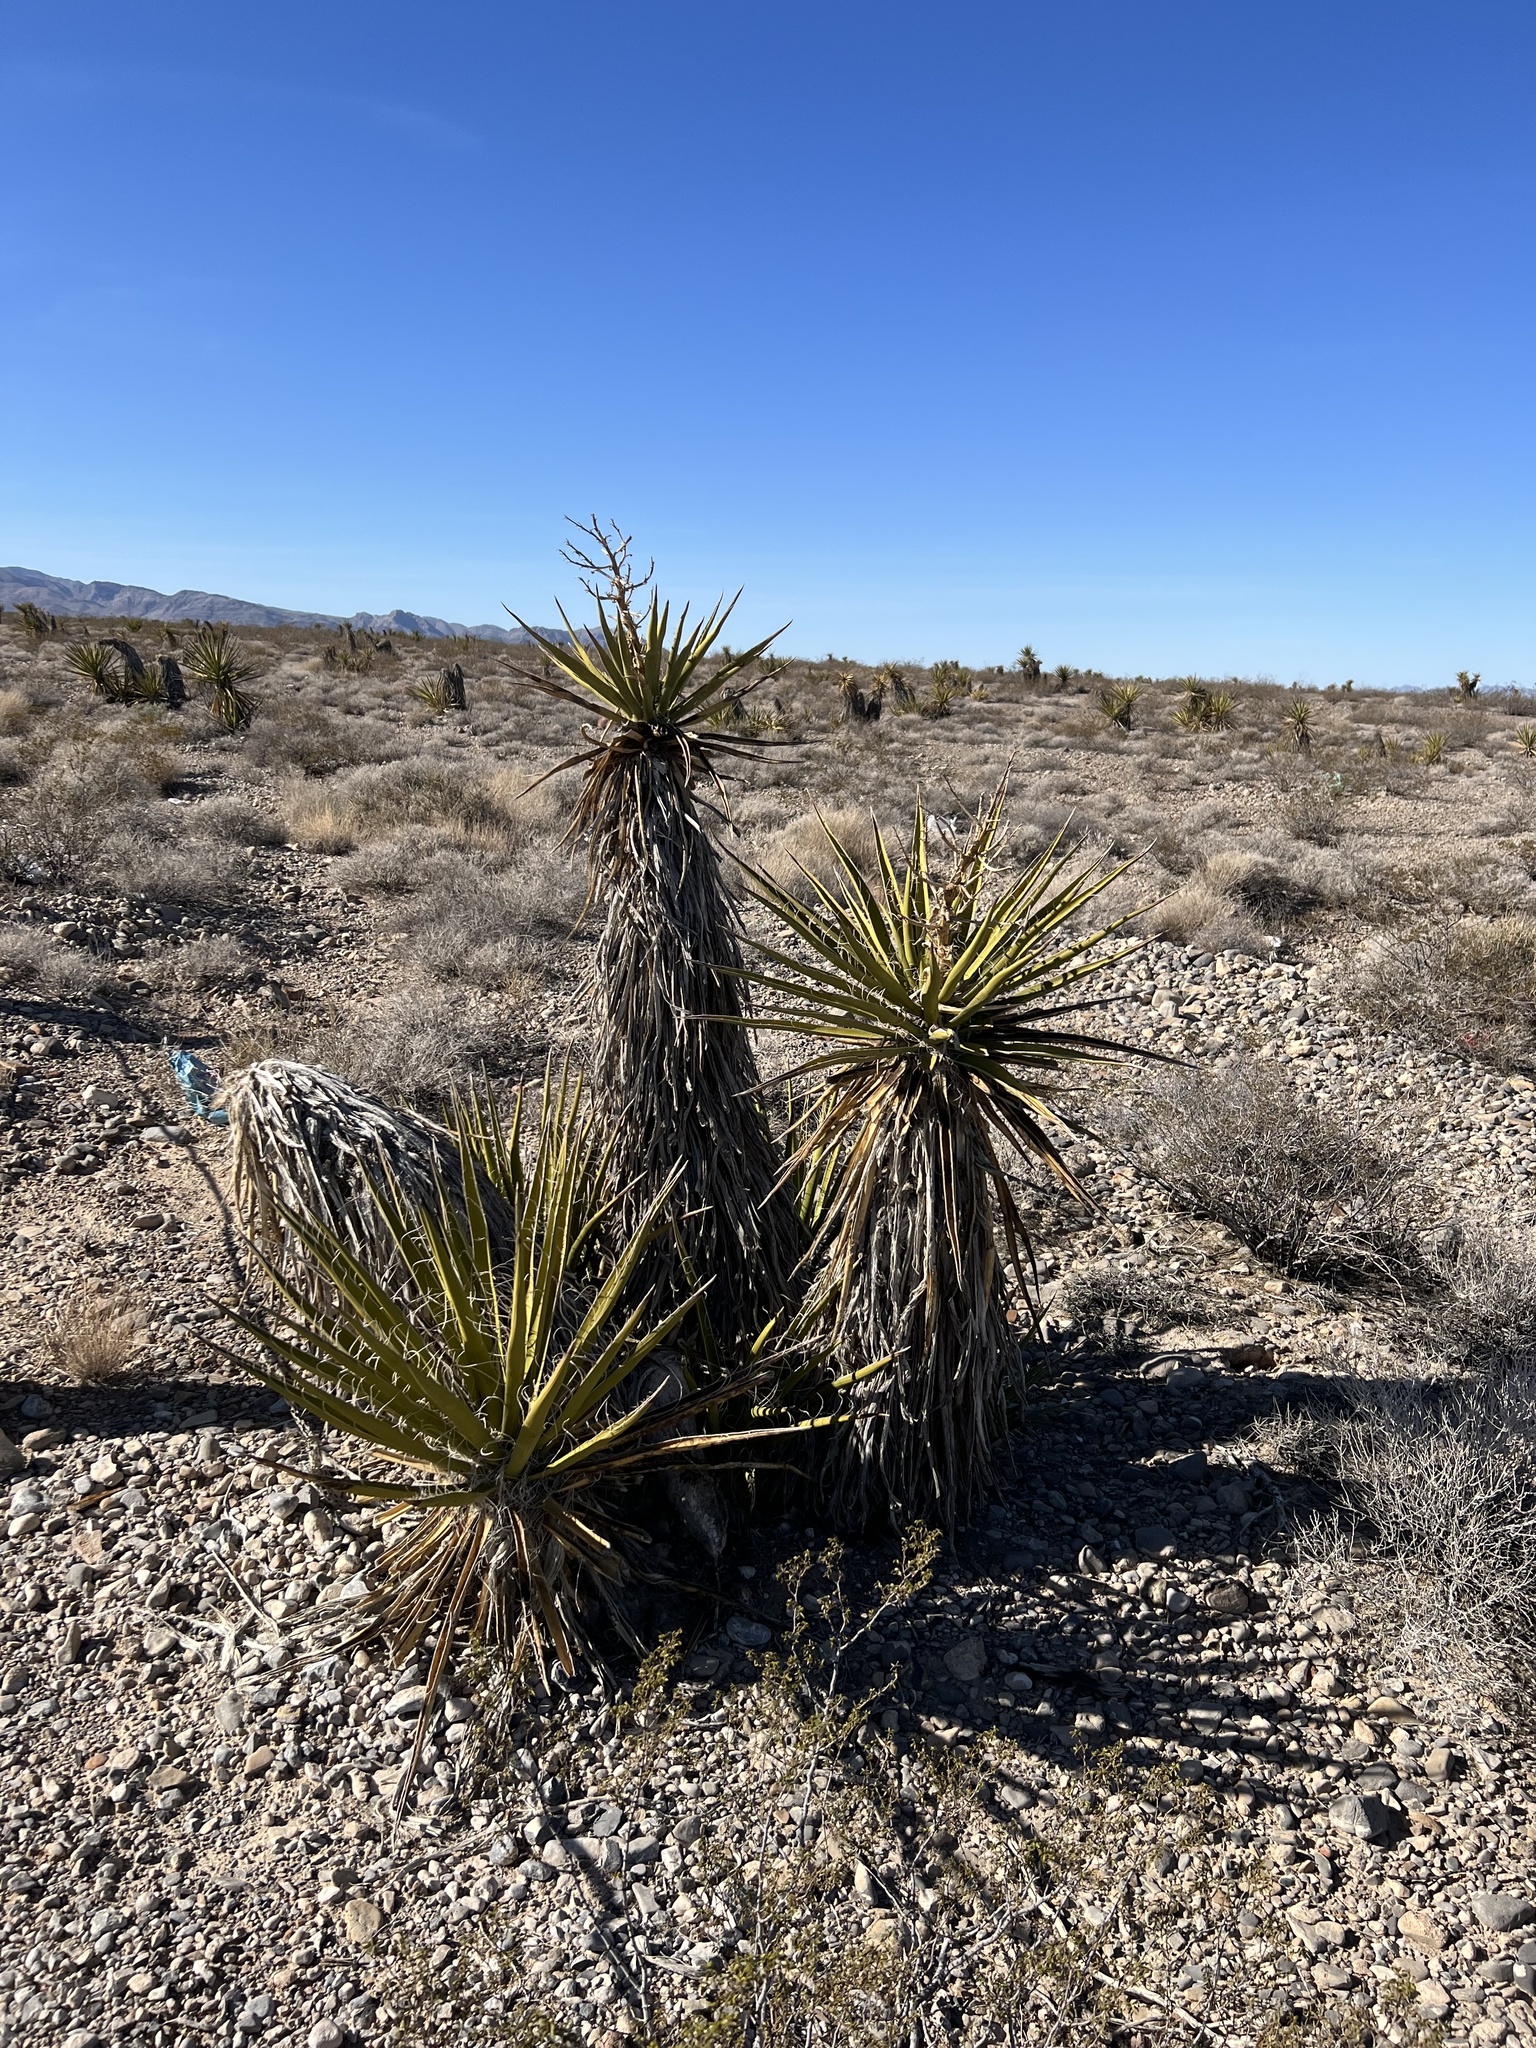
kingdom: Plantae
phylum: Tracheophyta
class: Liliopsida
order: Asparagales
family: Asparagaceae
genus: Yucca
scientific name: Yucca schidigera
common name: Mojave yucca
